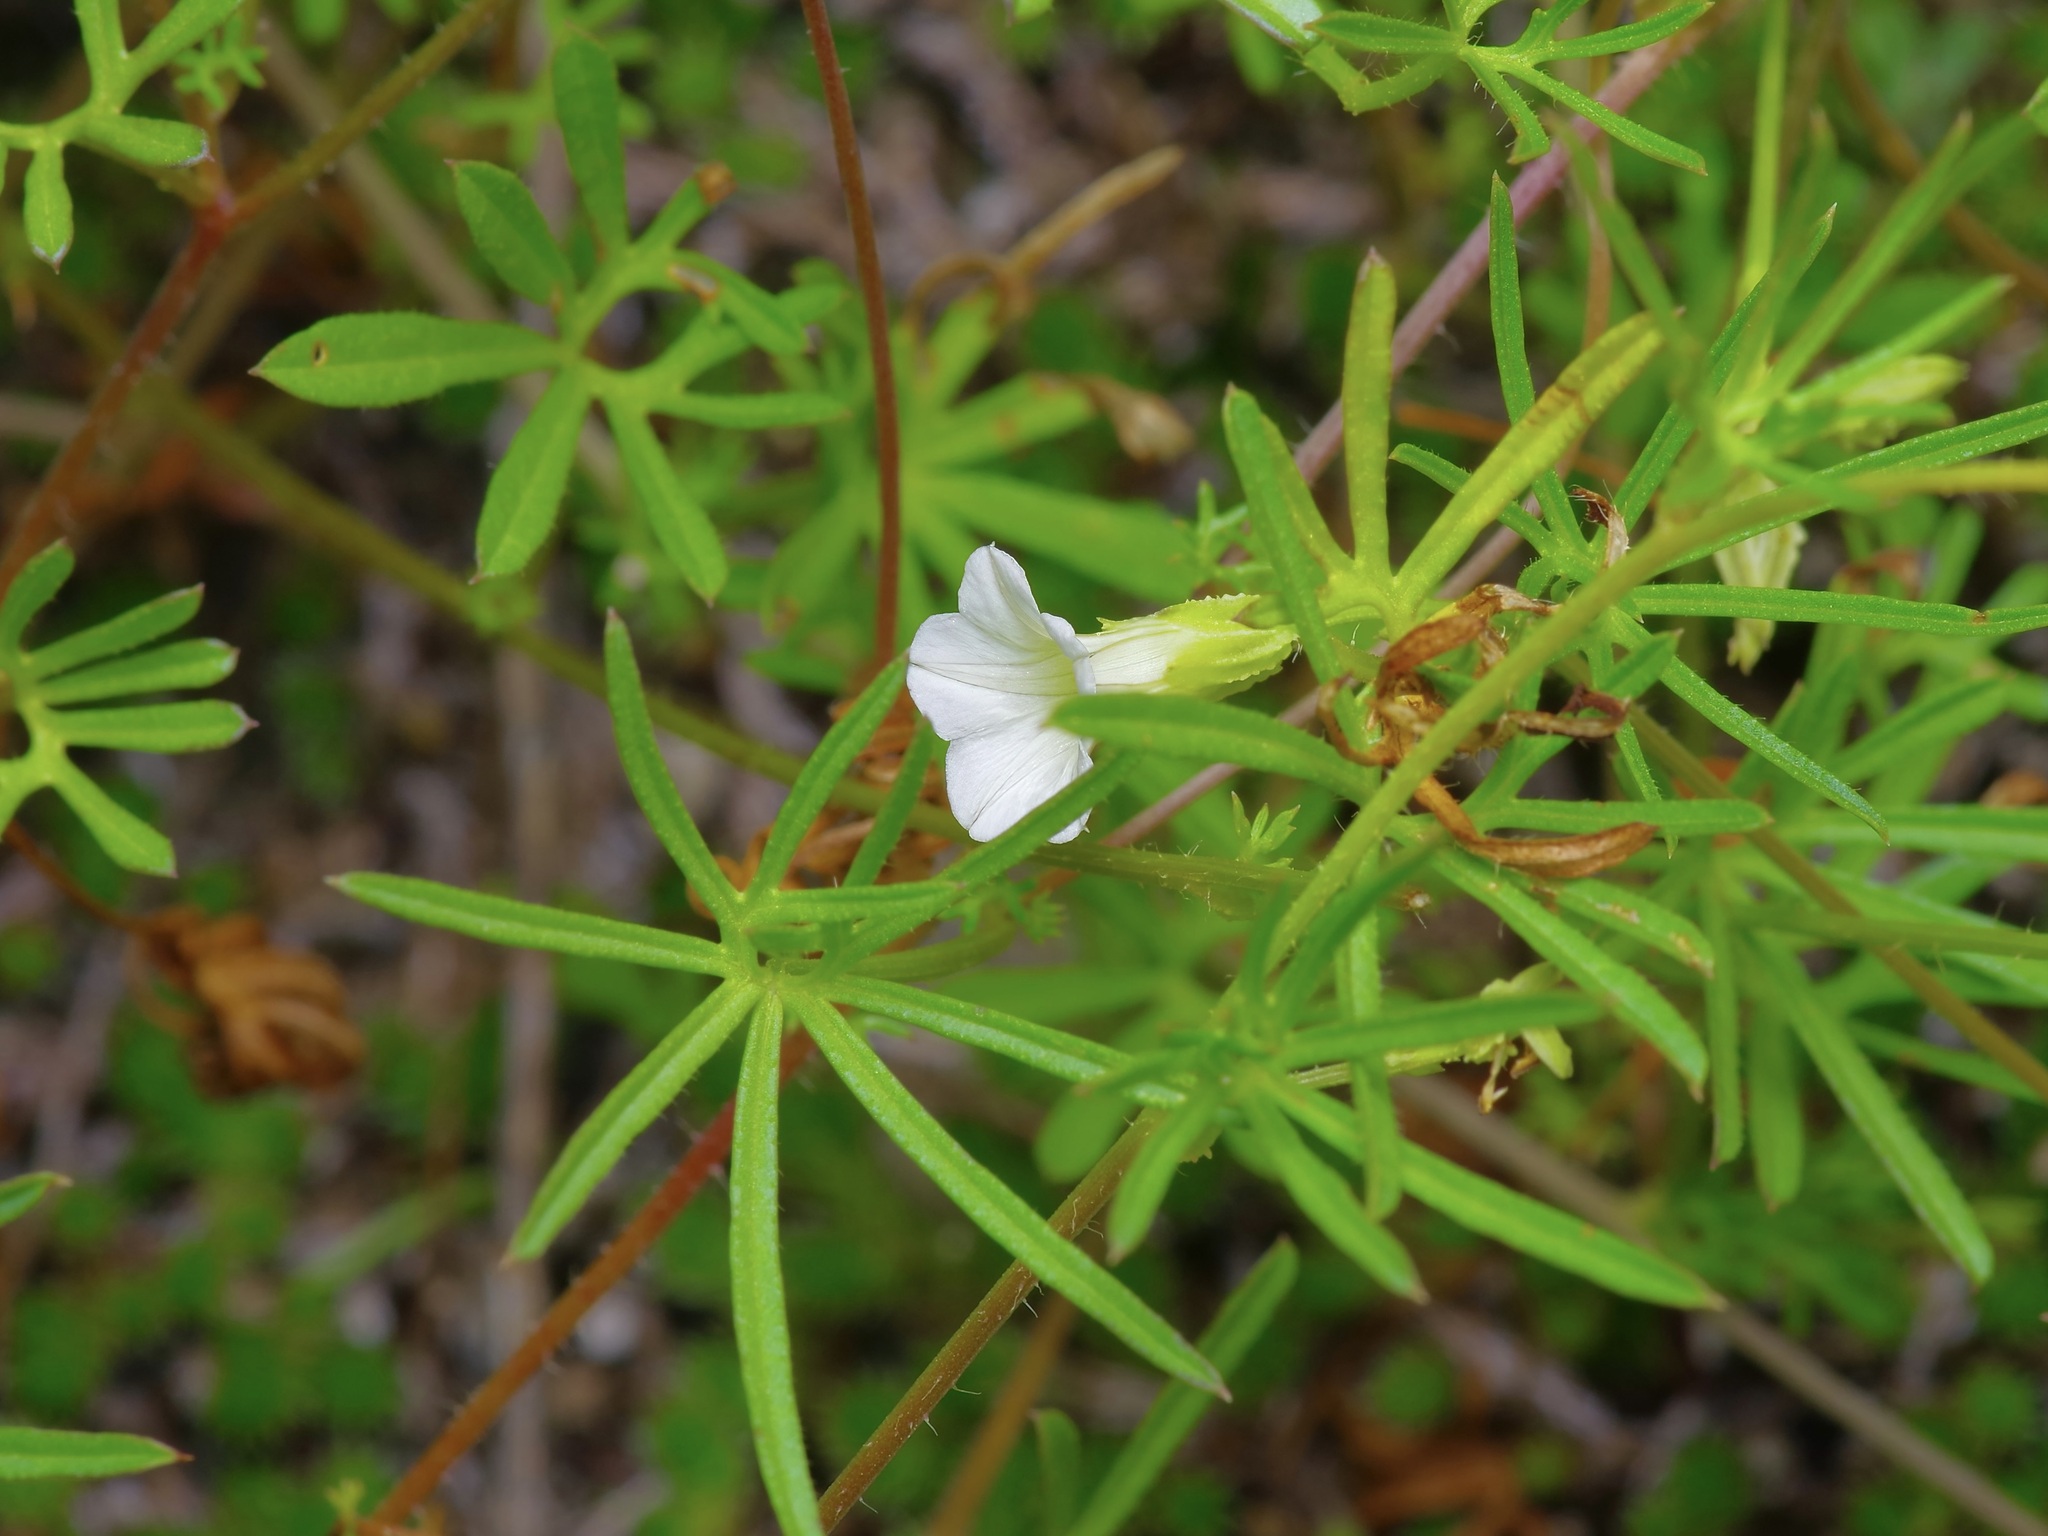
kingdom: Plantae
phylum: Tracheophyta
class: Magnoliopsida
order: Solanales
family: Convolvulaceae
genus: Ipomoea
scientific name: Ipomoea costellata
